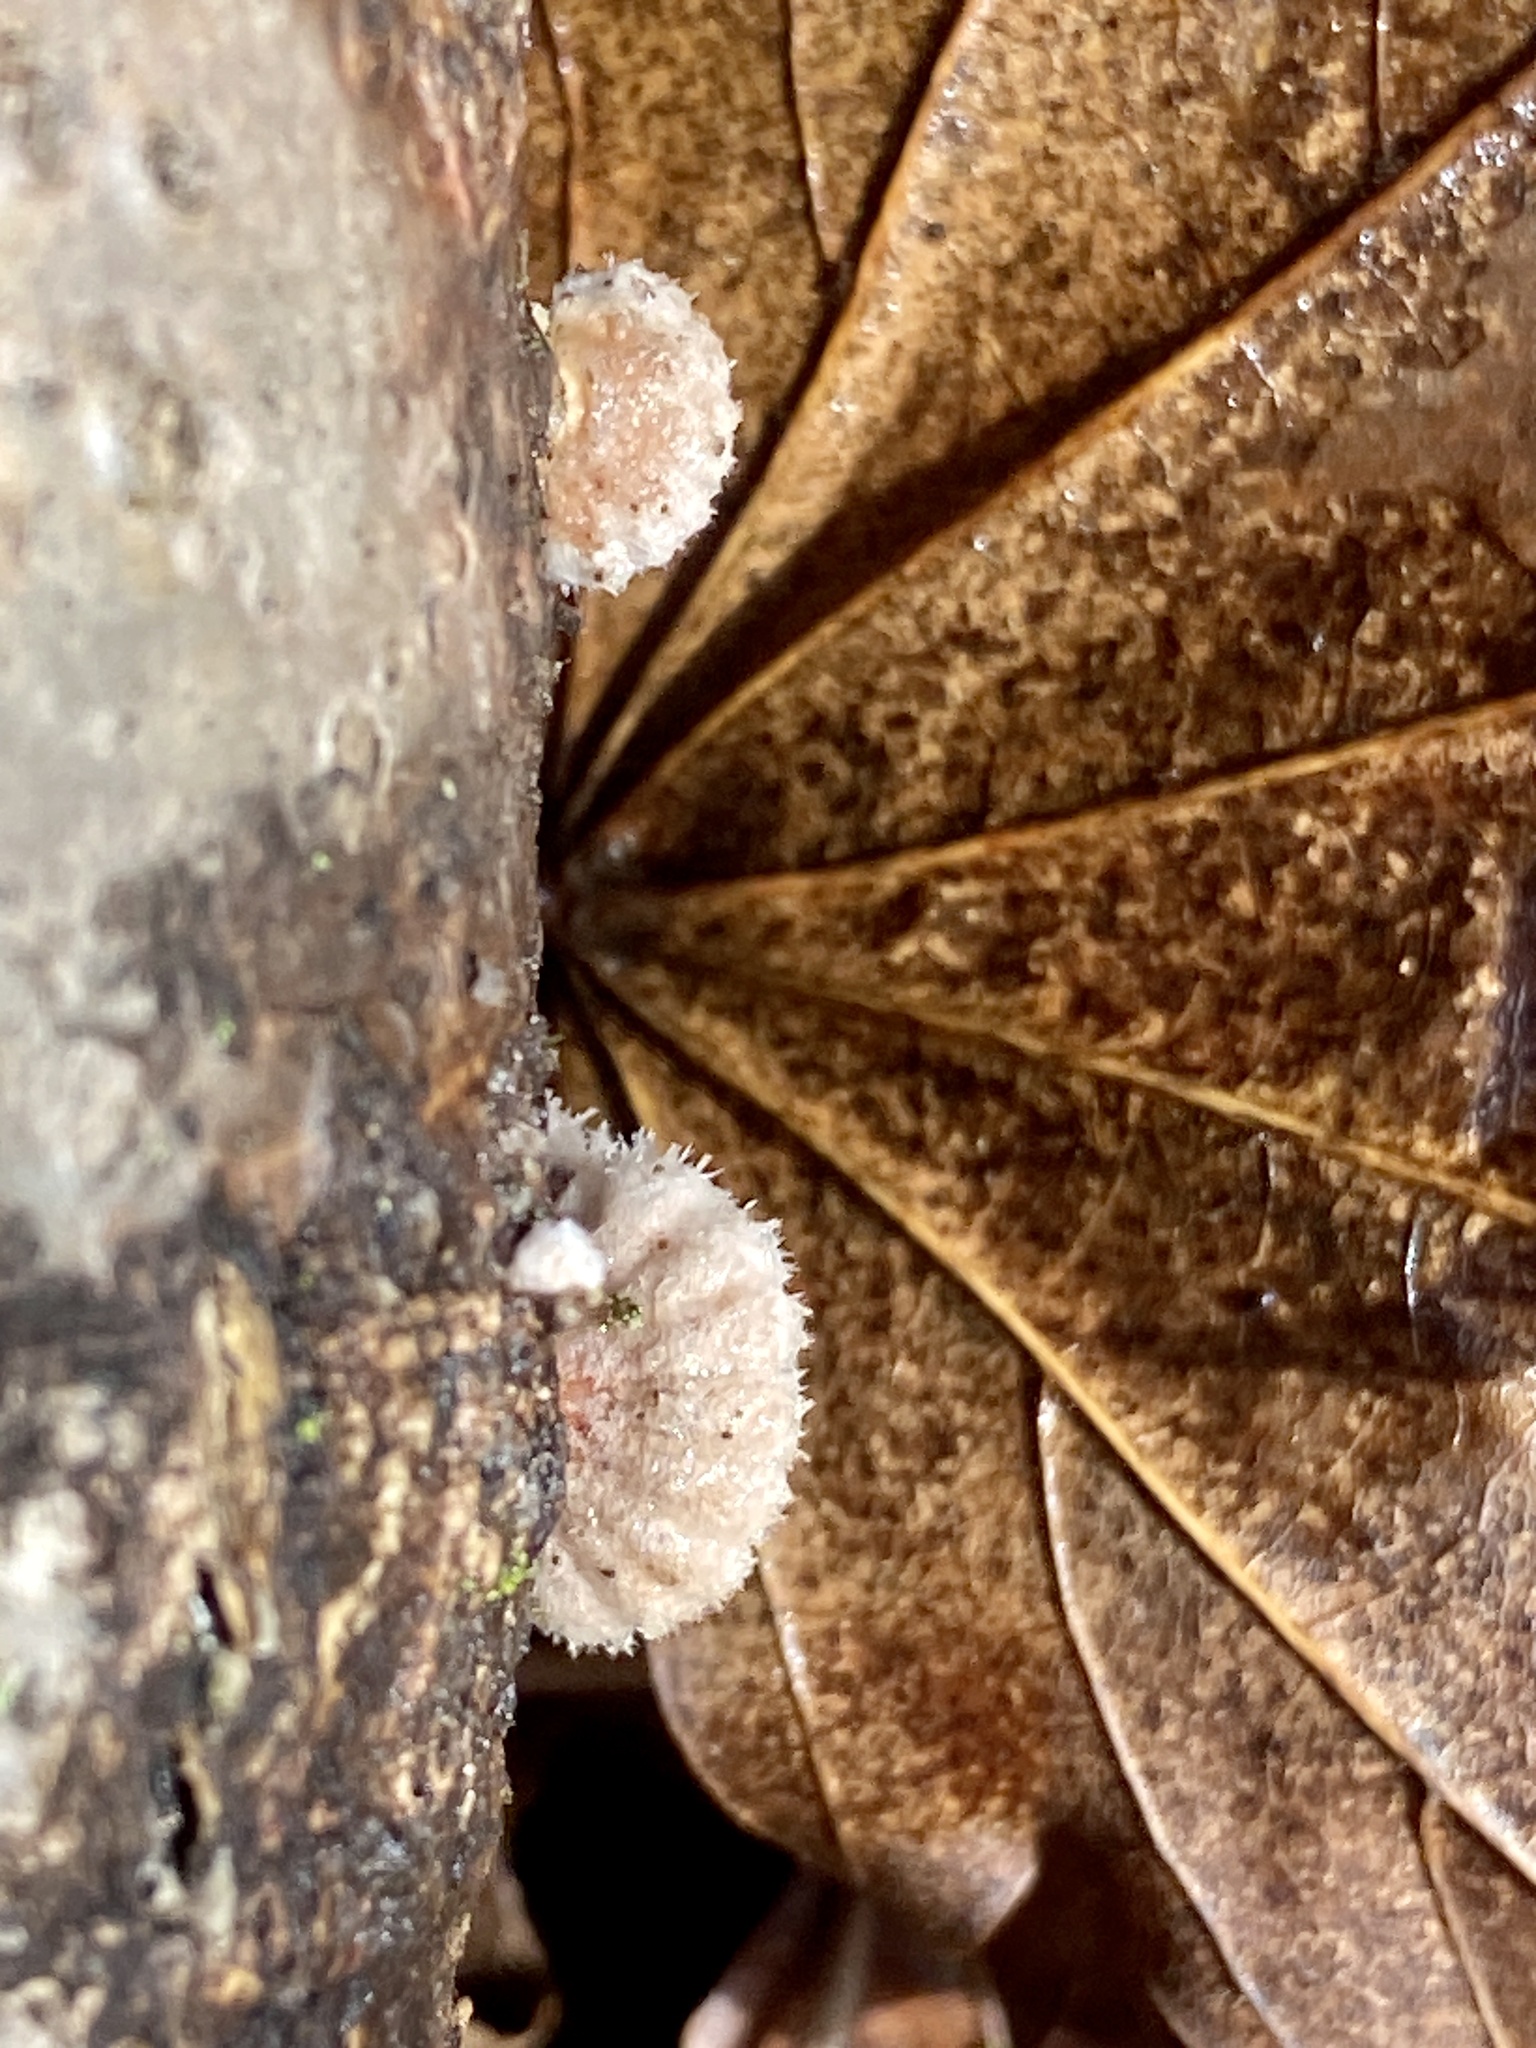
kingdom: Fungi
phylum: Basidiomycota
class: Agaricomycetes
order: Agaricales
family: Schizophyllaceae
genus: Schizophyllum
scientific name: Schizophyllum commune
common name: Common porecrust
